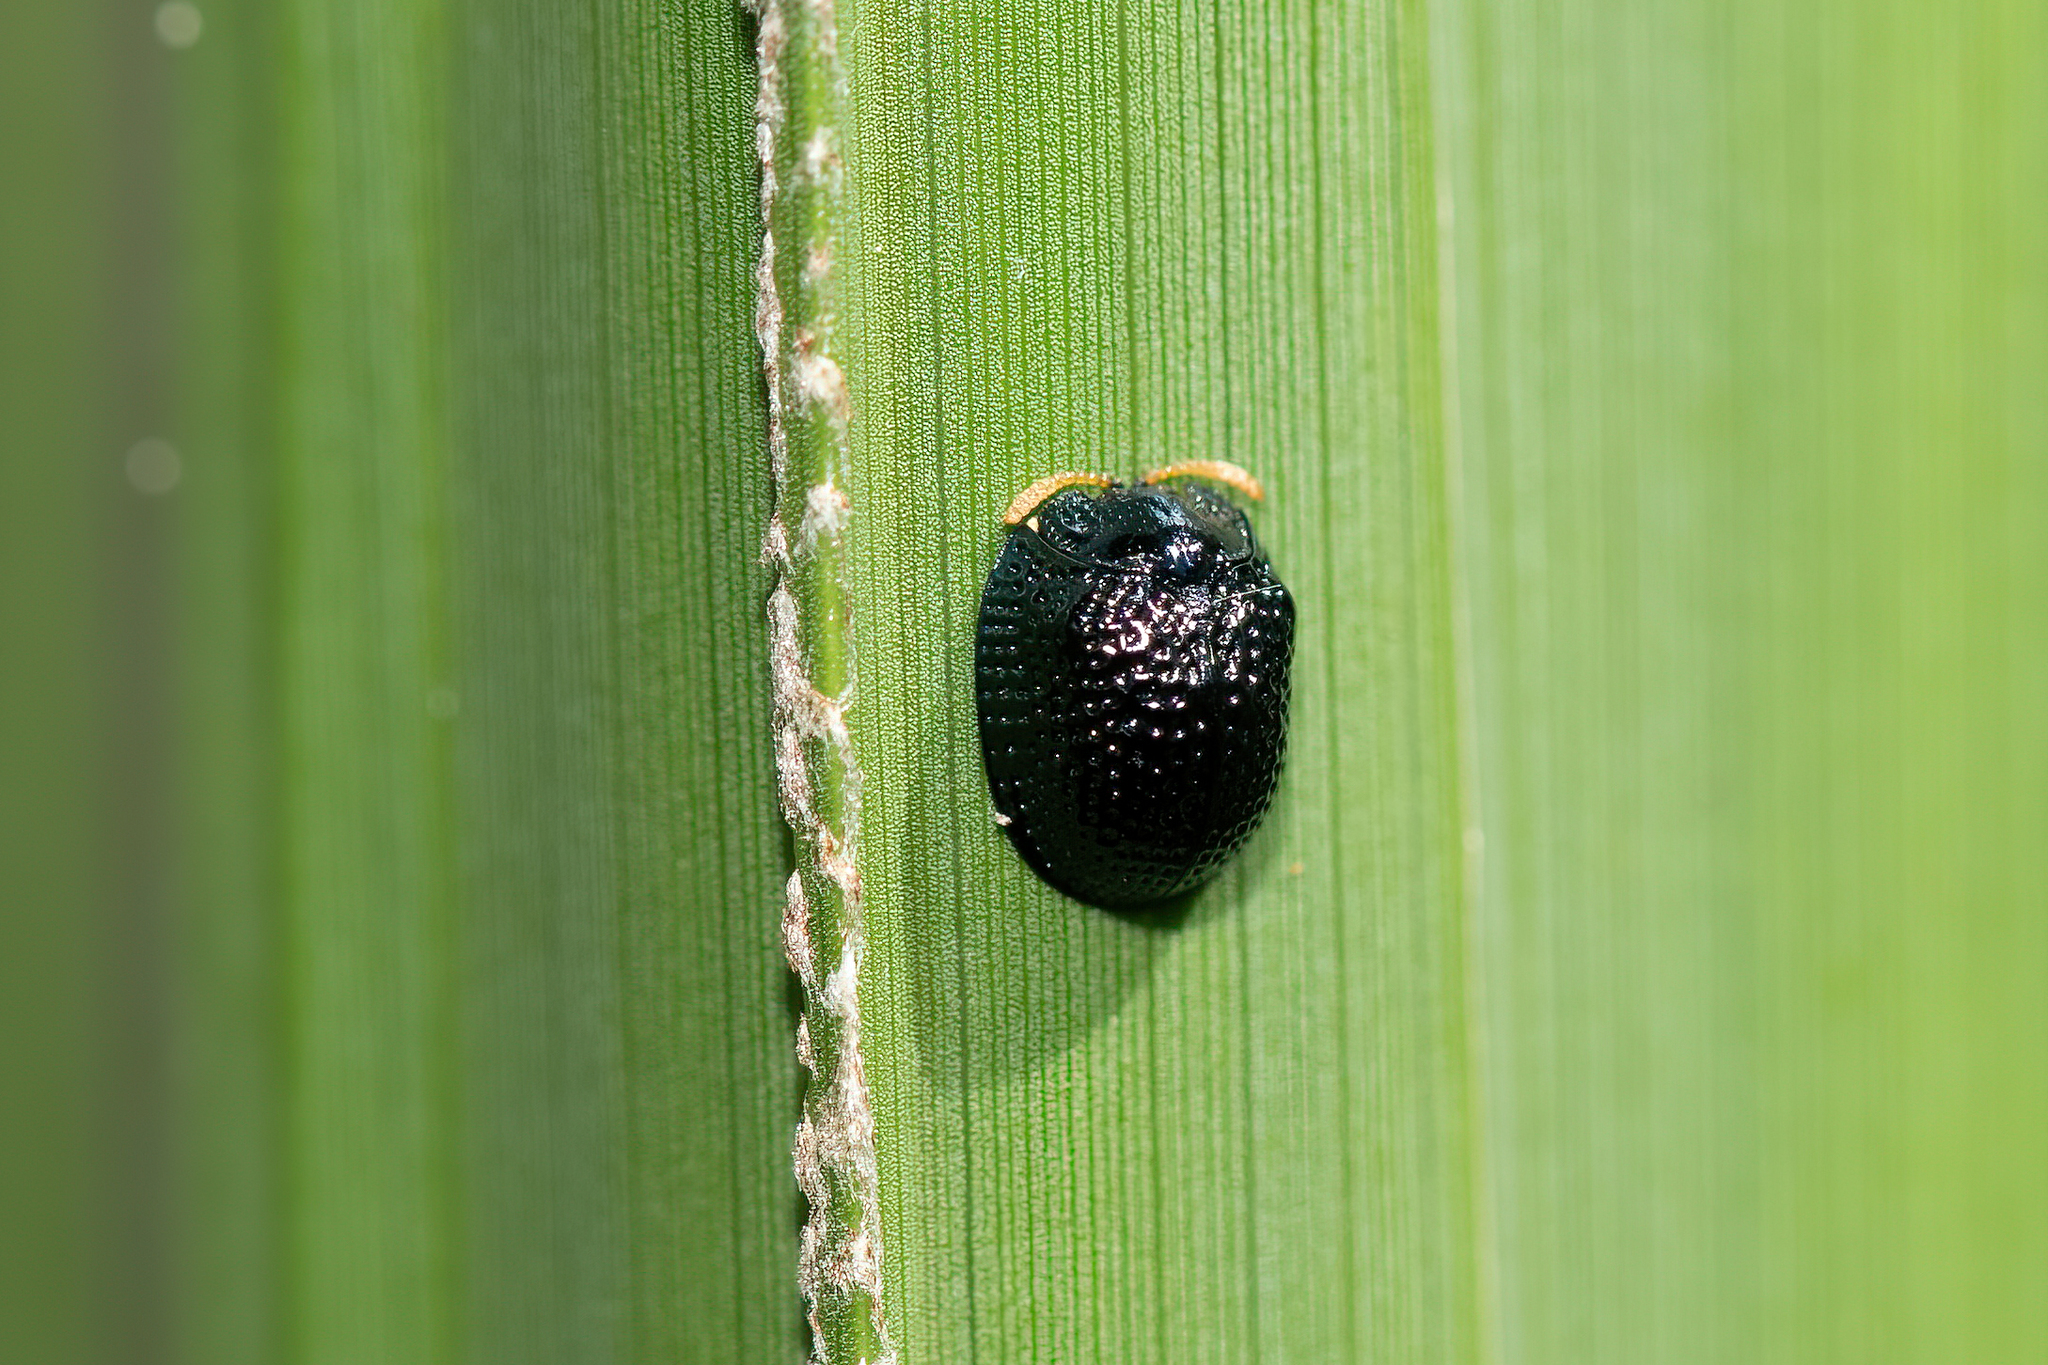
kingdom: Animalia
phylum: Arthropoda
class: Insecta
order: Coleoptera
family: Chrysomelidae
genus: Hemisphaerota
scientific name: Hemisphaerota cyanea
